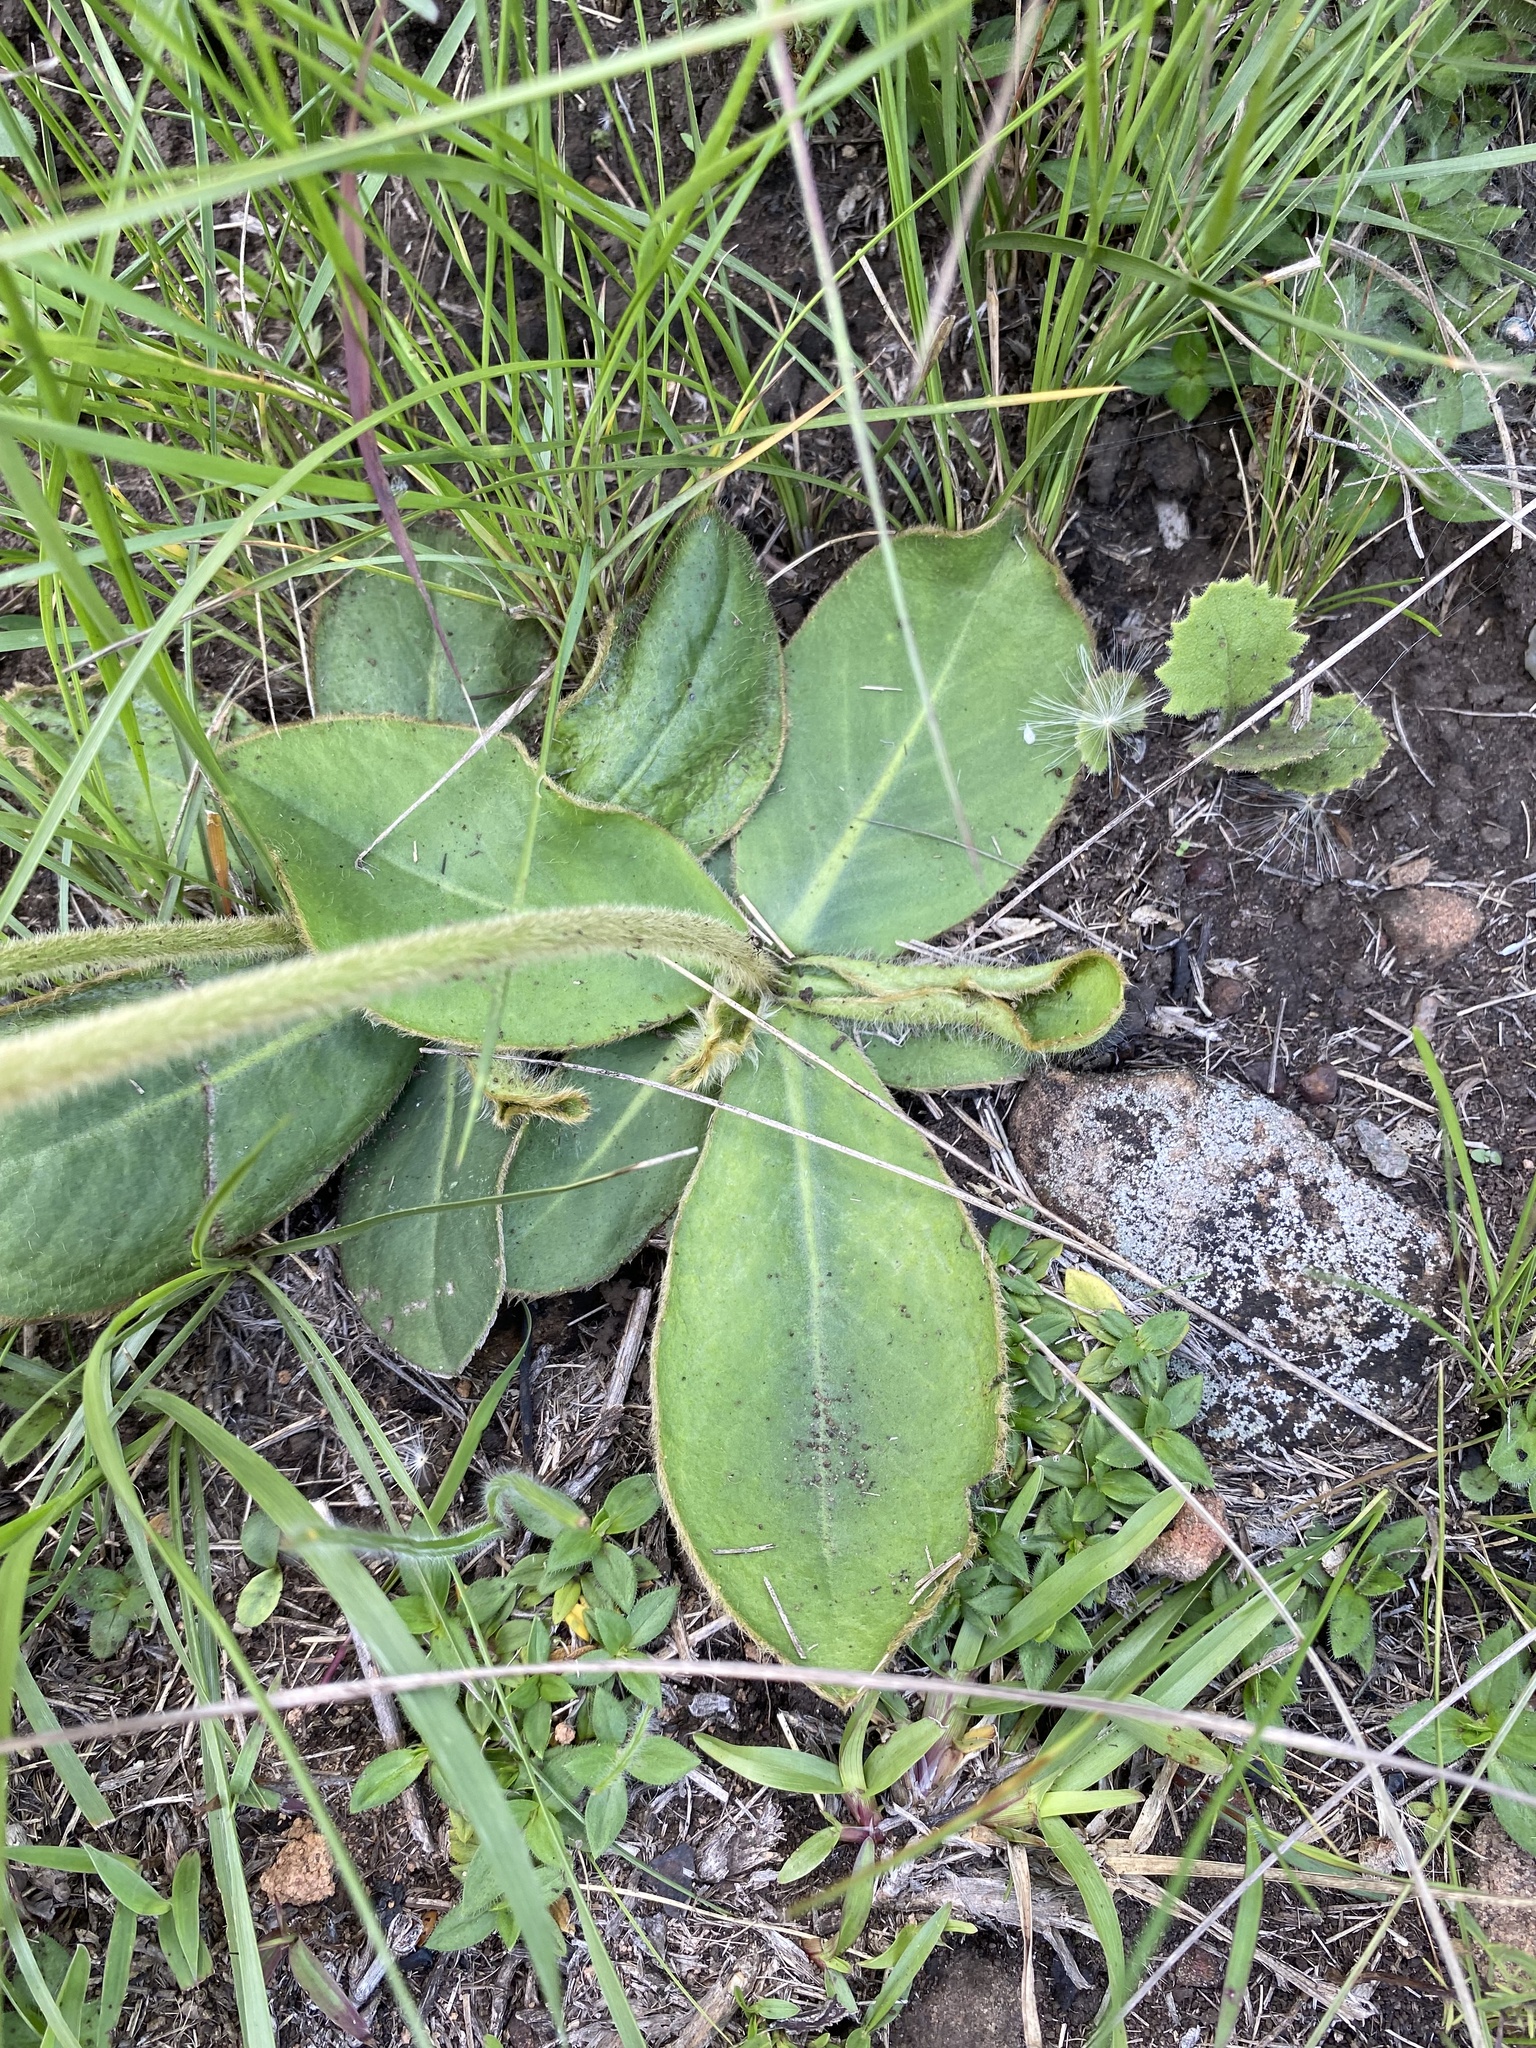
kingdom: Plantae
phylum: Tracheophyta
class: Magnoliopsida
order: Asterales
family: Asteraceae
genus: Piloselloides
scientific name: Piloselloides hirsuta
